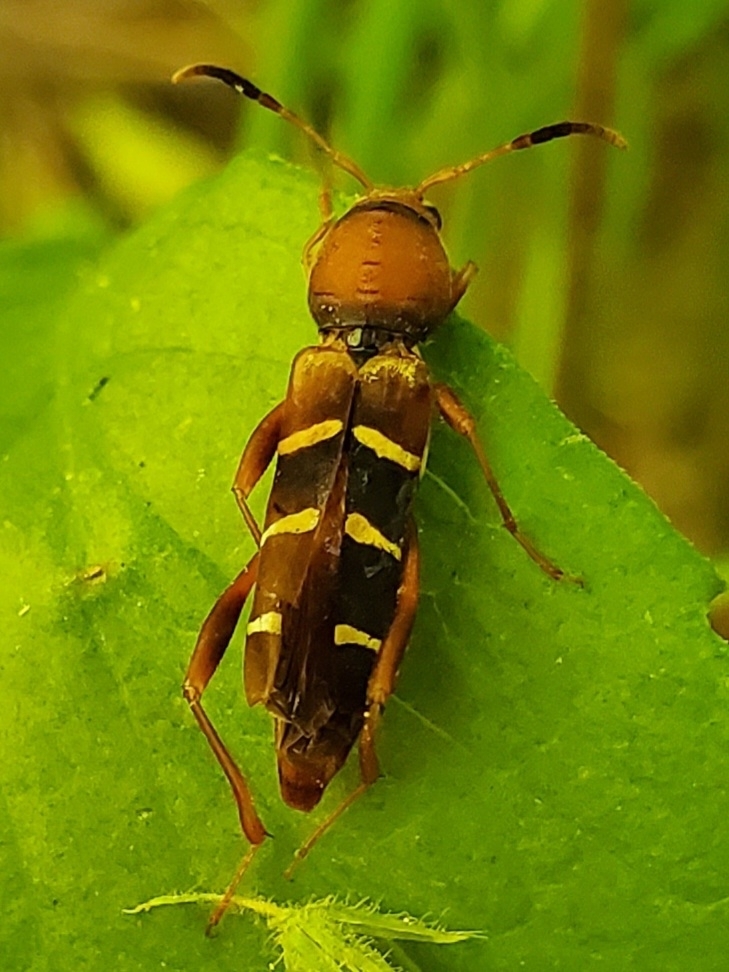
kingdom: Animalia
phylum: Arthropoda
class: Insecta
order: Coleoptera
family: Cerambycidae
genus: Neoclytus
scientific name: Neoclytus acuminatus
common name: Read-headed ash borer
